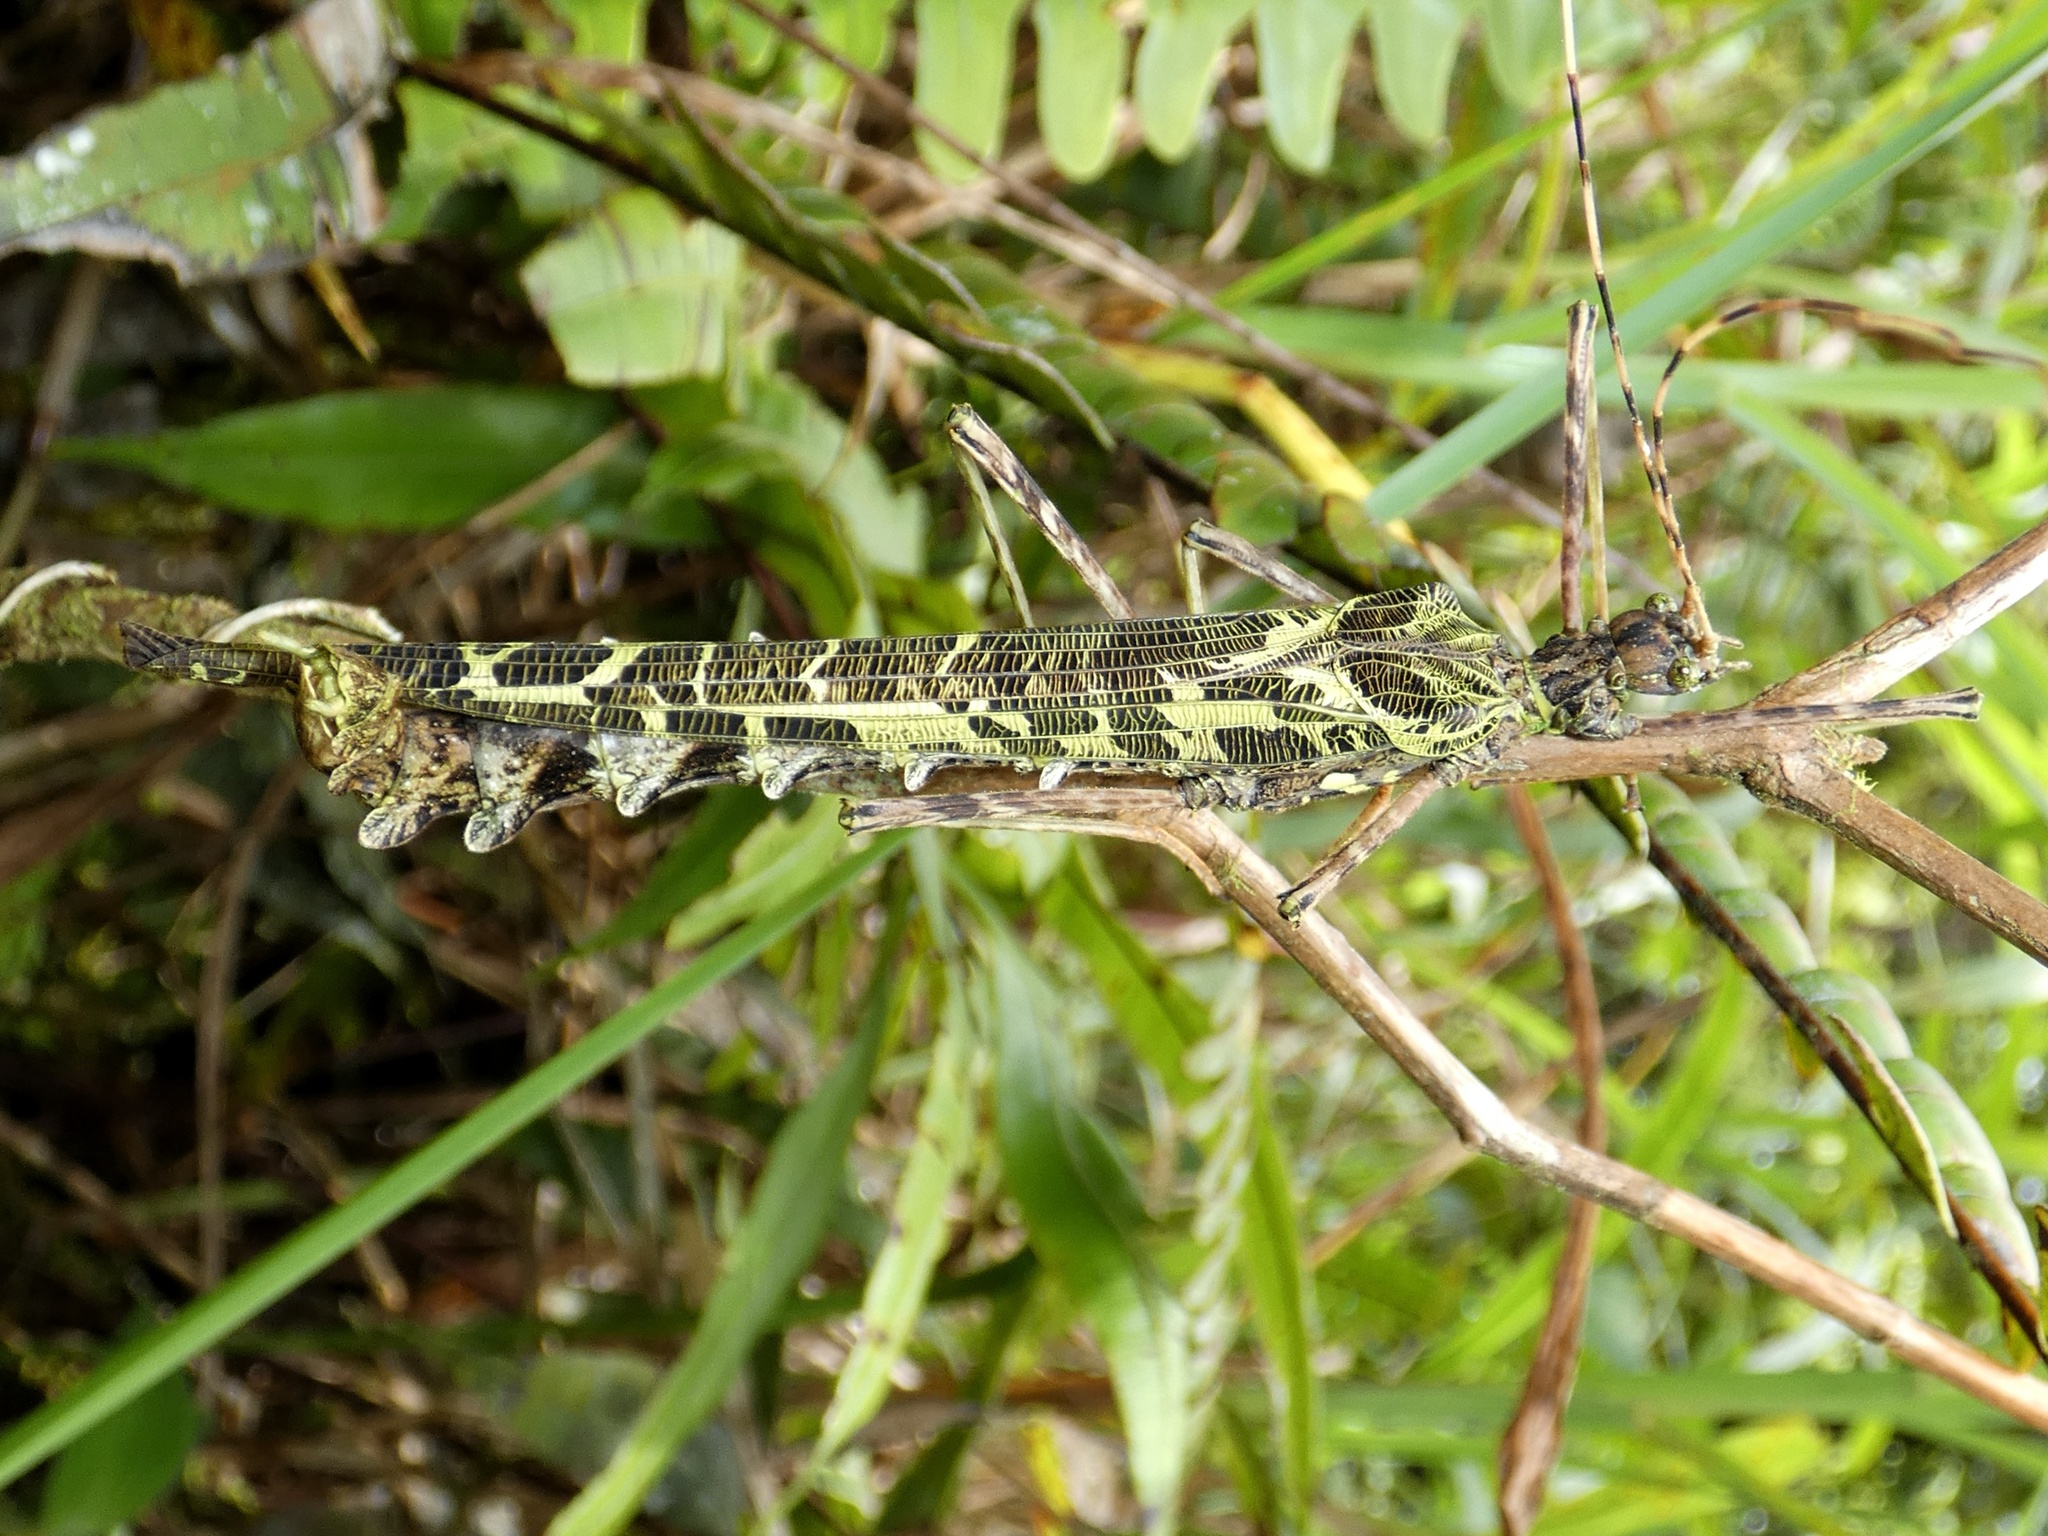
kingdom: Animalia
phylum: Arthropoda
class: Insecta
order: Phasmida
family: Pseudophasmatidae
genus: Stratocles
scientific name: Stratocles viridimaculatus
